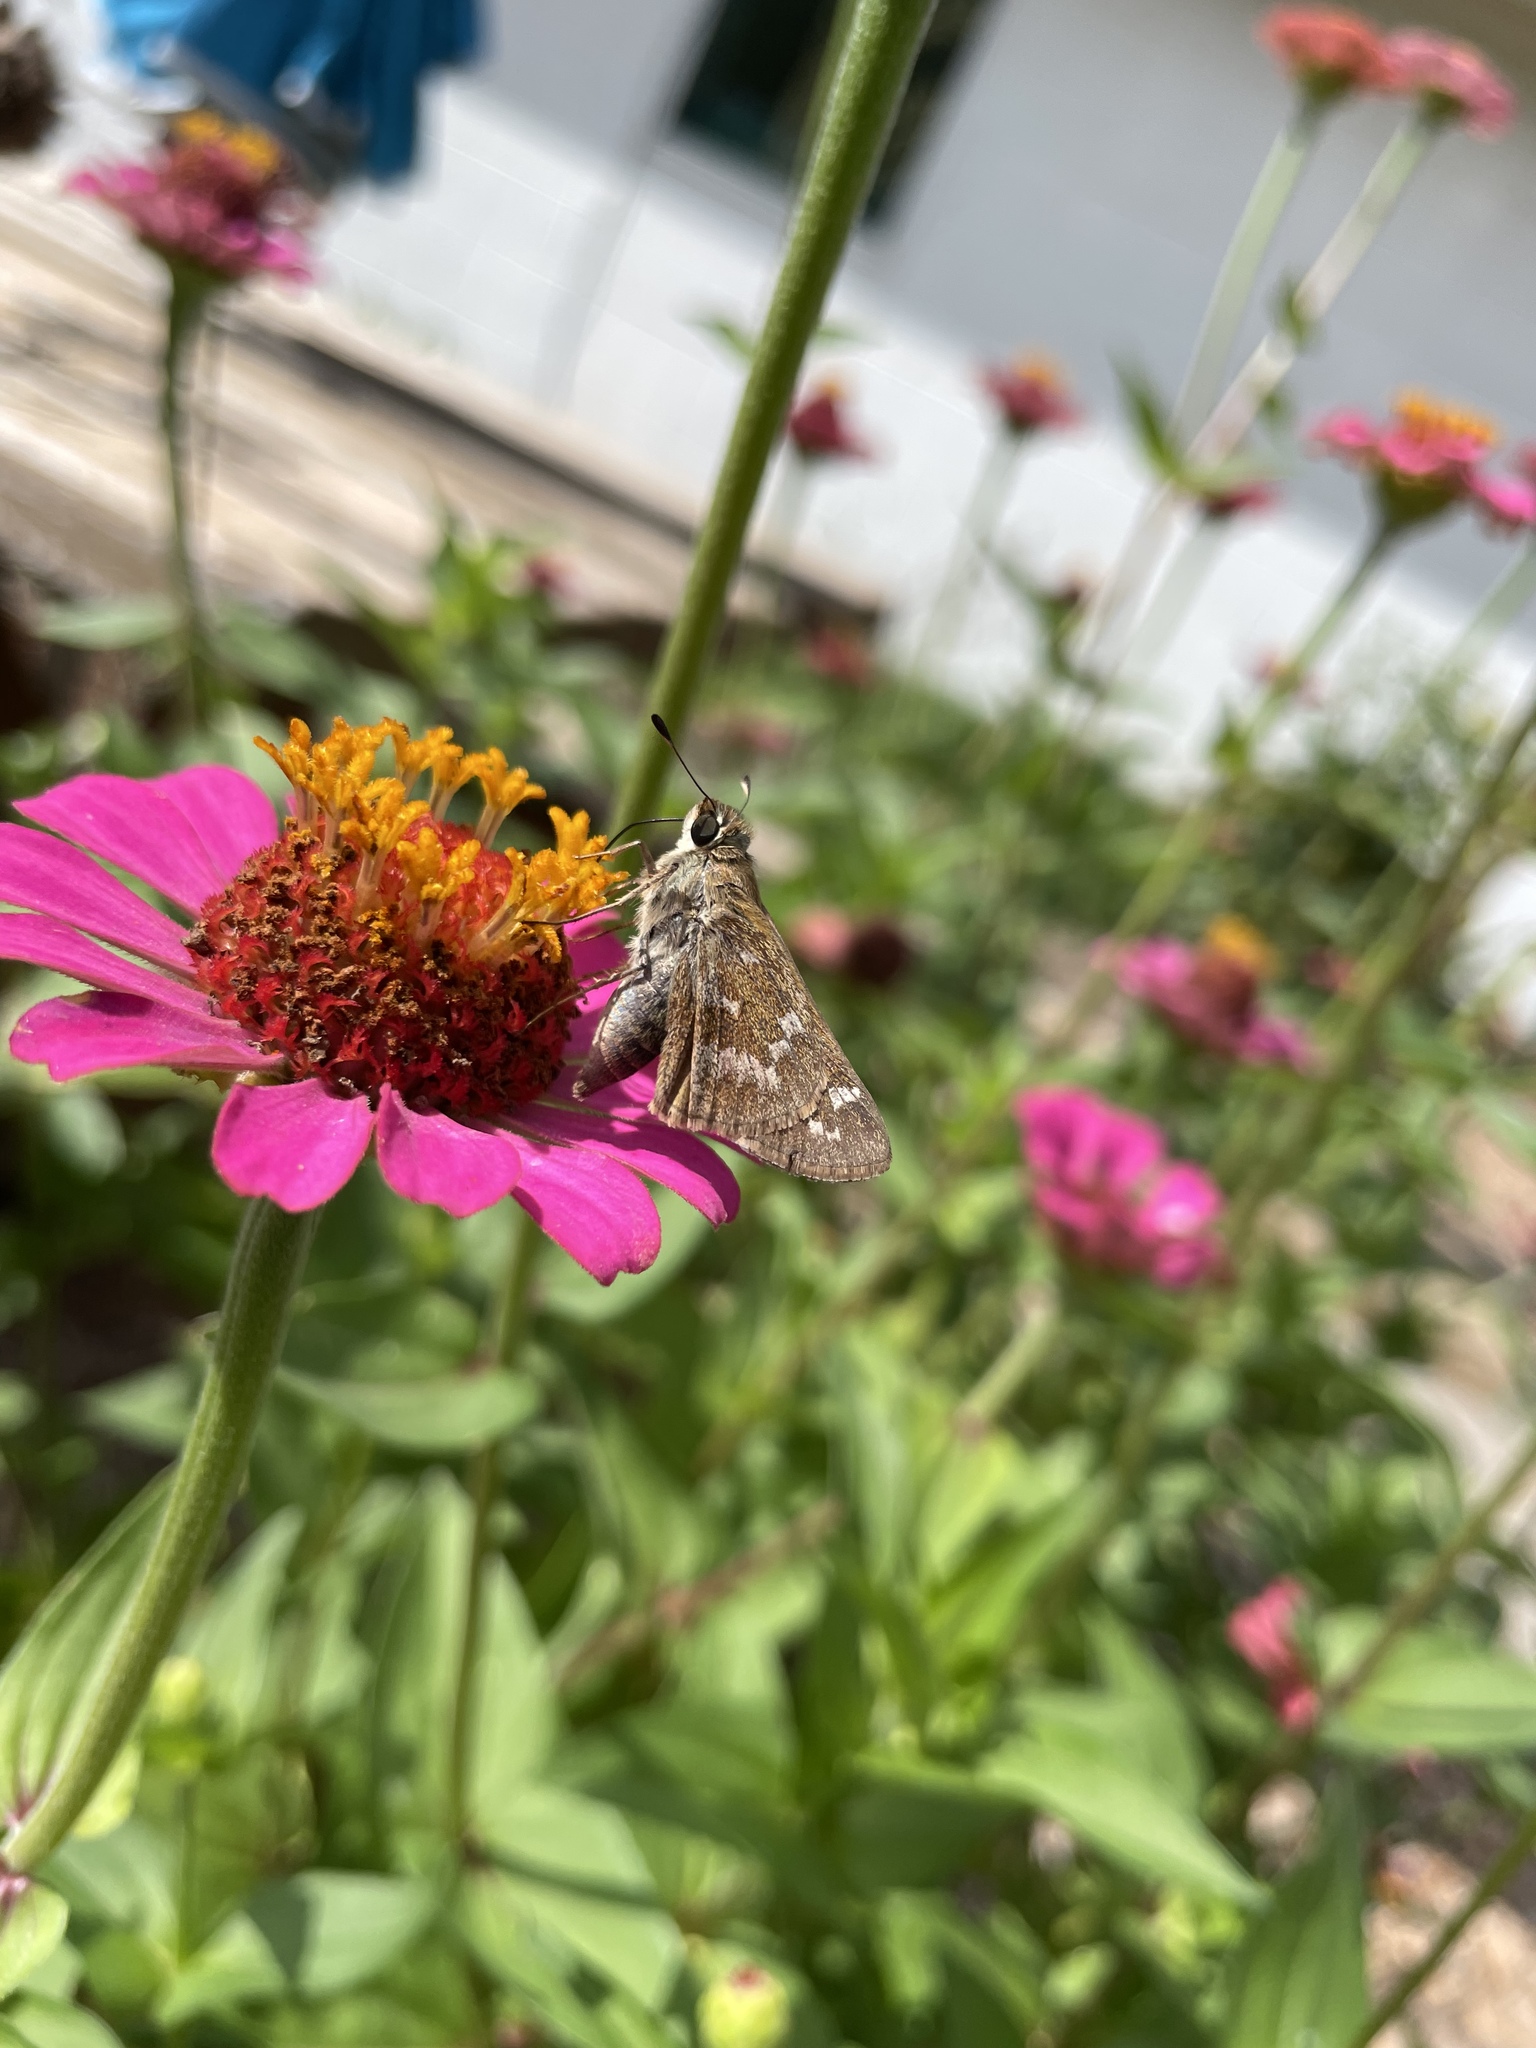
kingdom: Animalia
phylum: Arthropoda
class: Insecta
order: Lepidoptera
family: Hesperiidae
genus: Atalopedes
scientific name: Atalopedes
